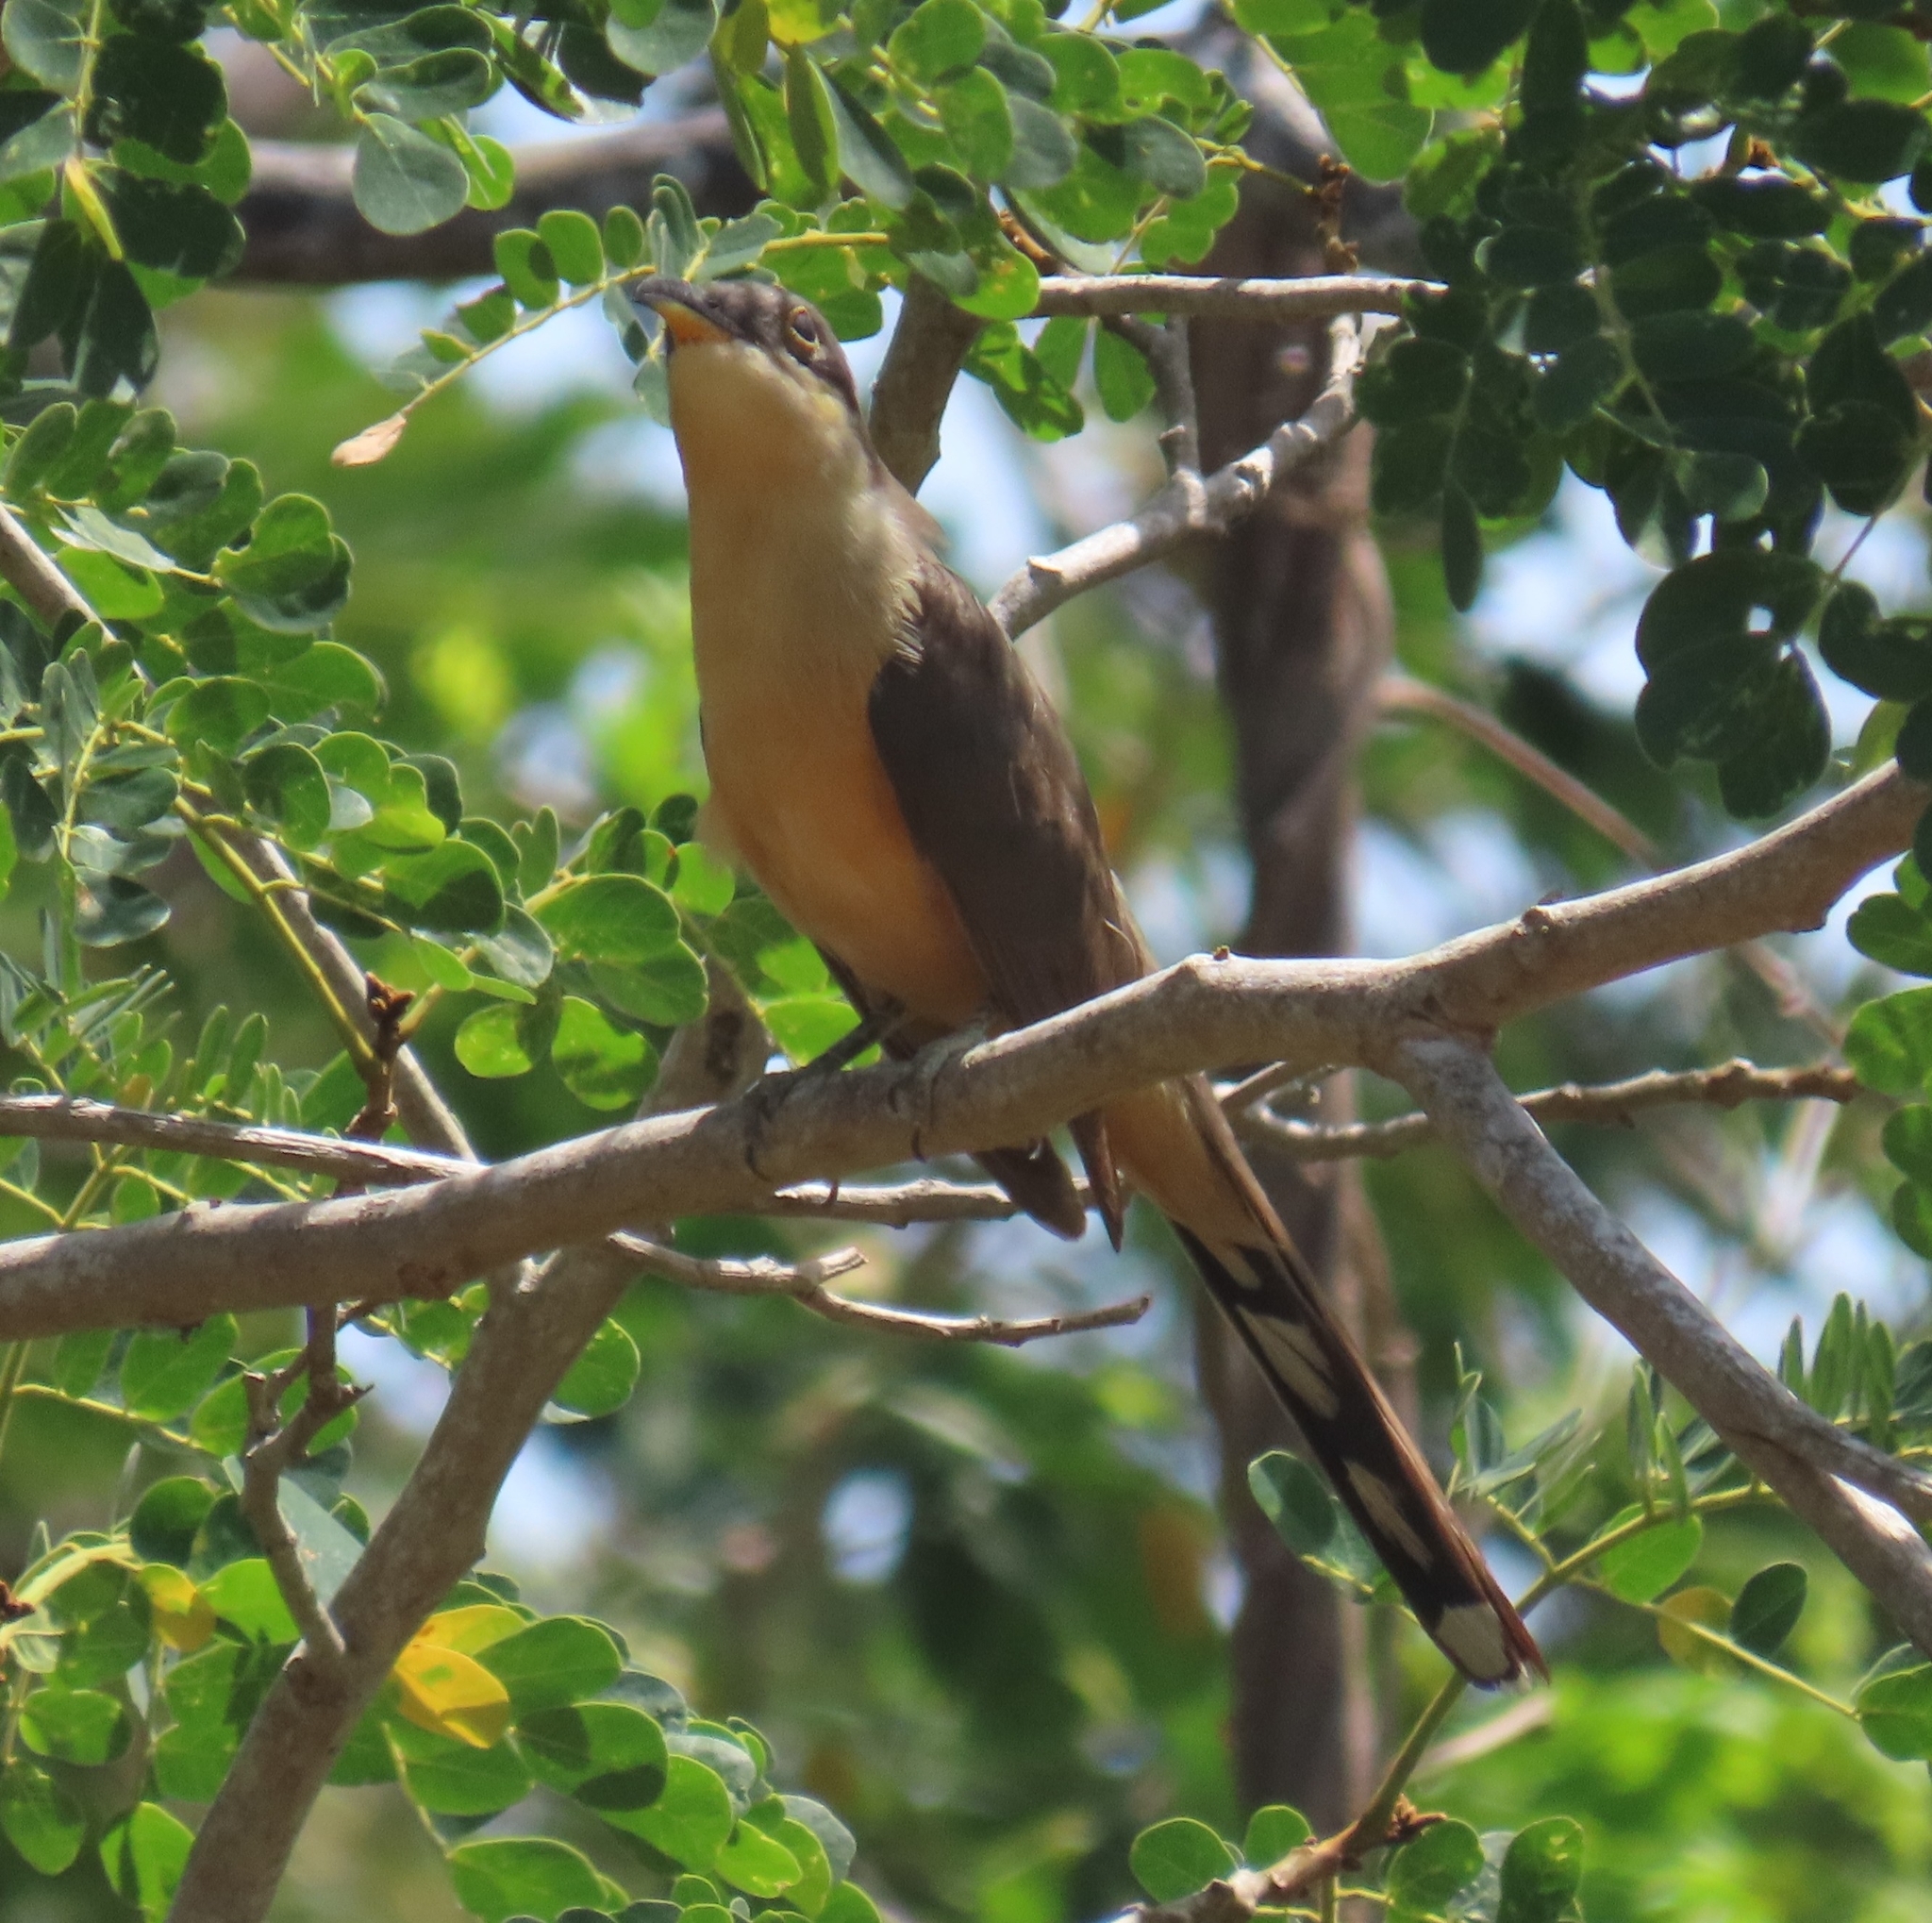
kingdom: Animalia
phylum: Chordata
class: Aves
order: Cuculiformes
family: Cuculidae
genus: Coccyzus
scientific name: Coccyzus minor
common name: Mangrove cuckoo
